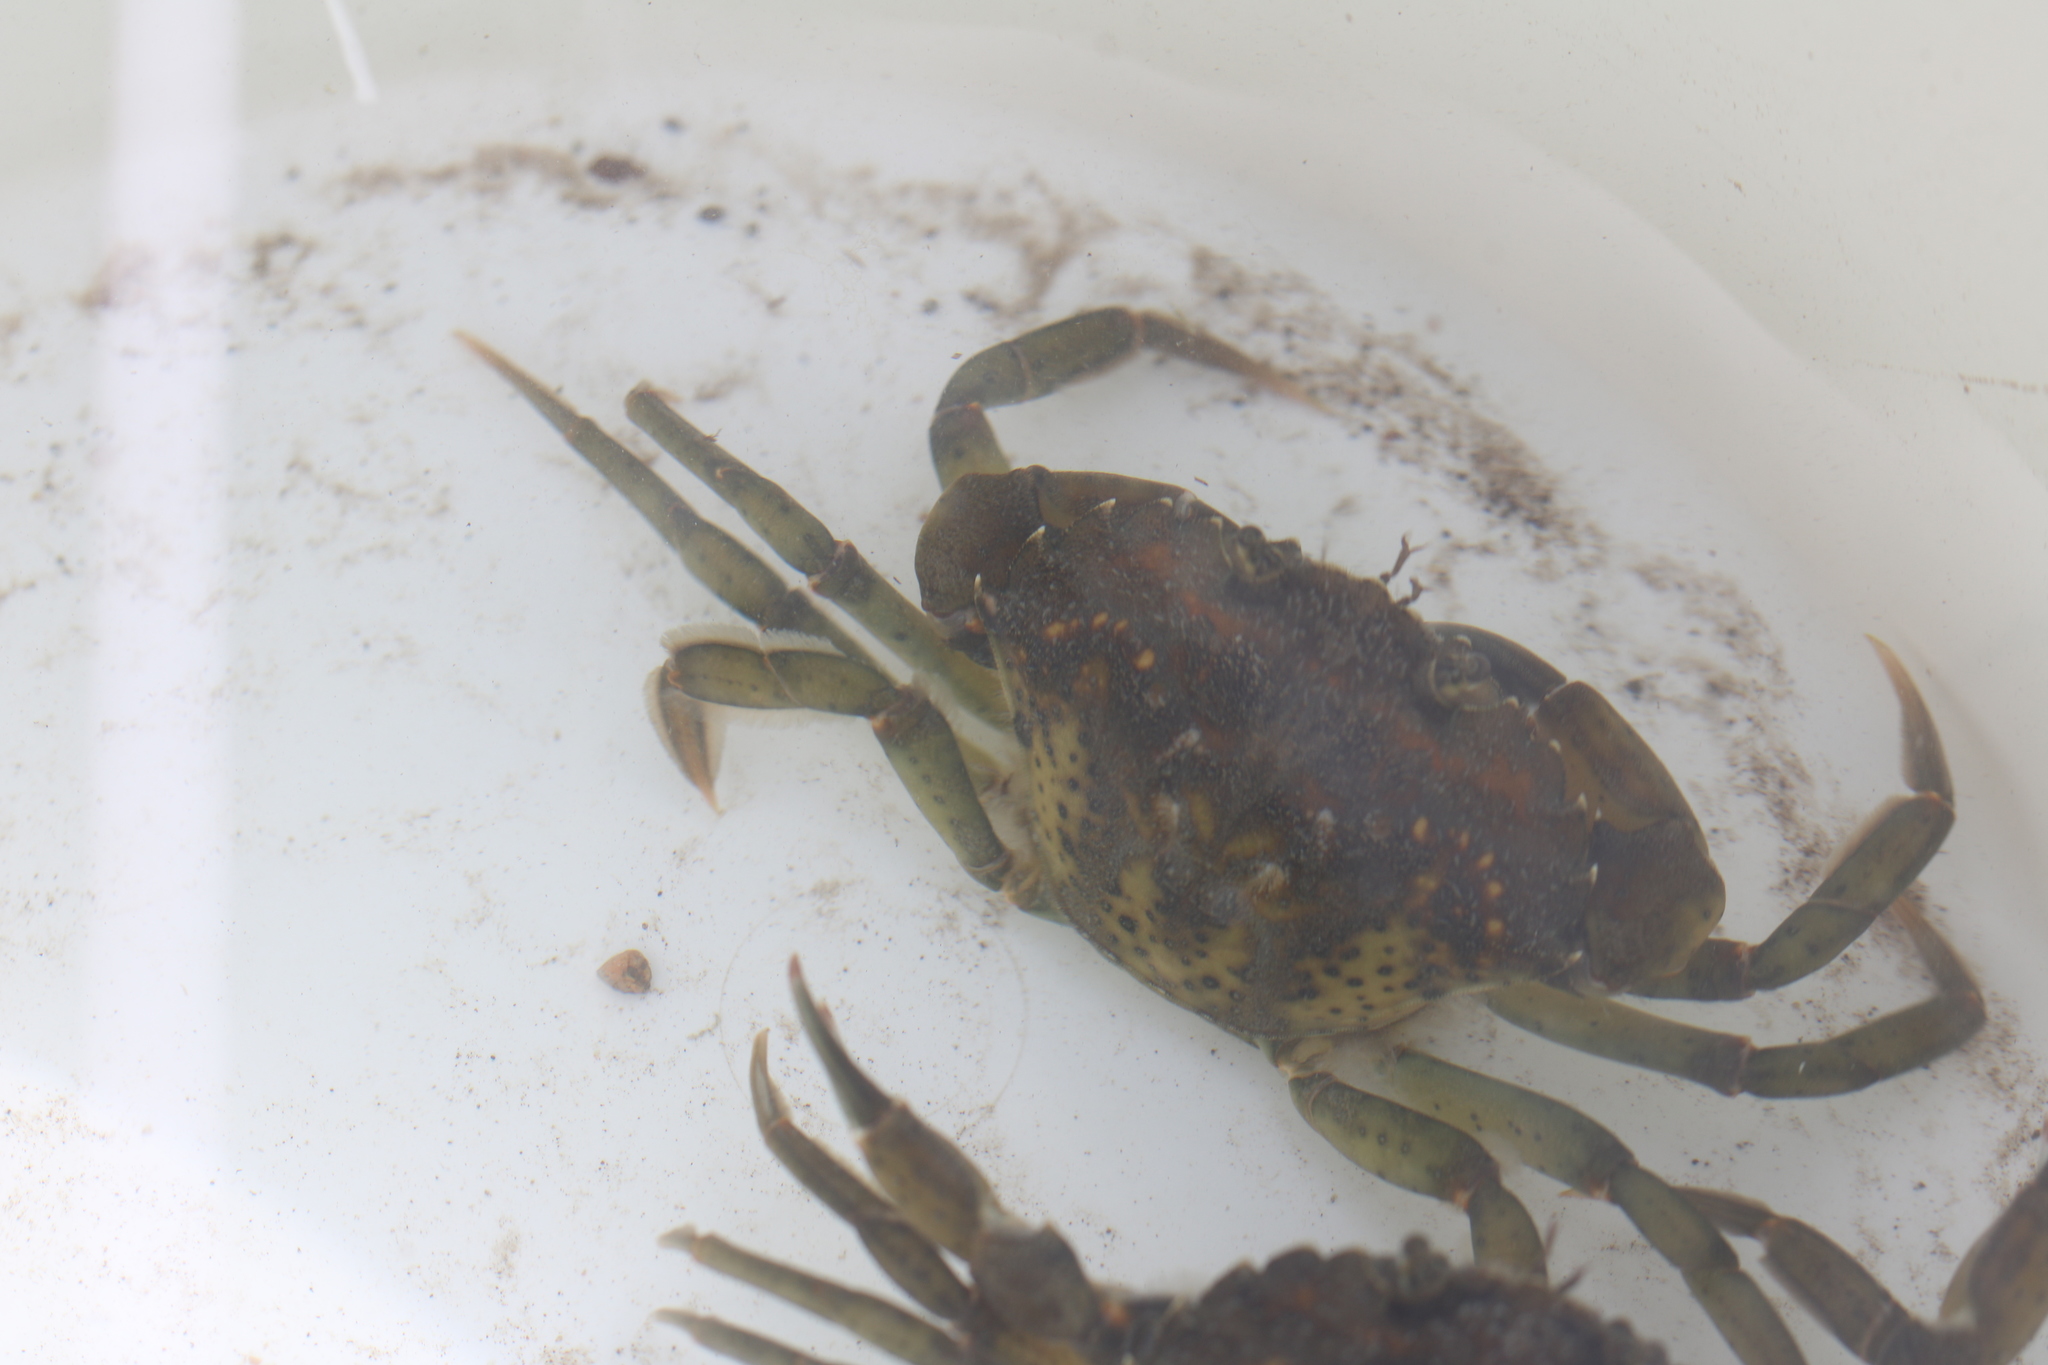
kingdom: Animalia
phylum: Arthropoda
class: Malacostraca
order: Decapoda
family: Carcinidae
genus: Carcinus
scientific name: Carcinus maenas
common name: European green crab
